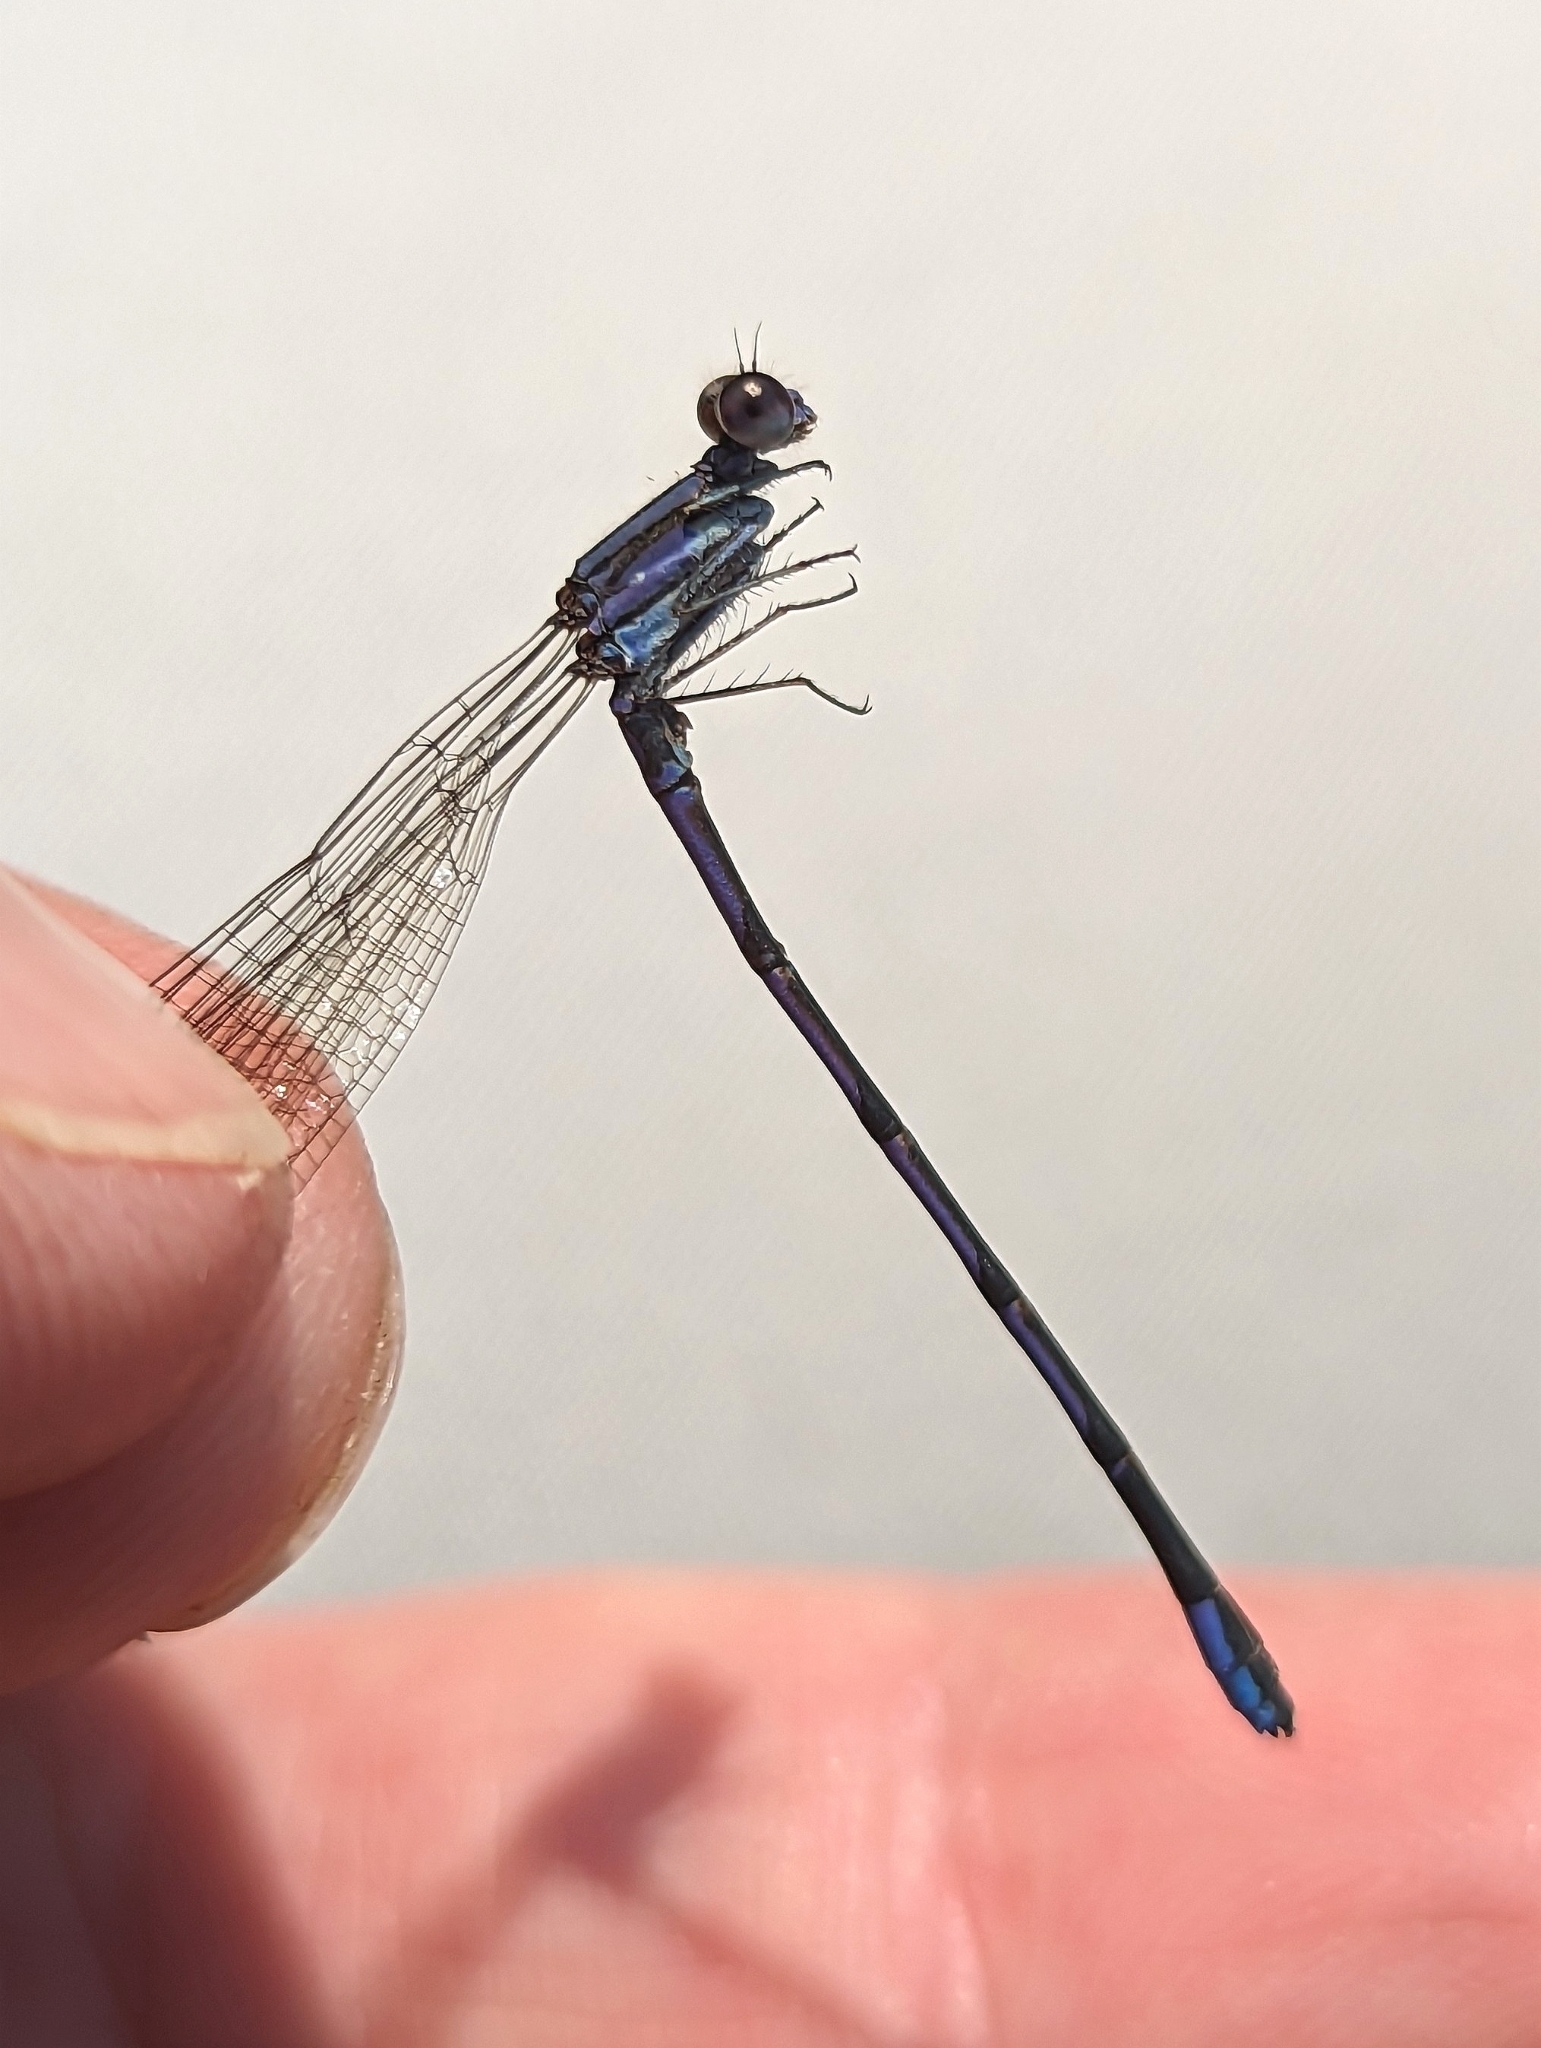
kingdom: Animalia
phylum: Arthropoda
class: Insecta
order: Odonata
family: Coenagrionidae
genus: Argia
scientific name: Argia fumipennis
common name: Variable dancer
